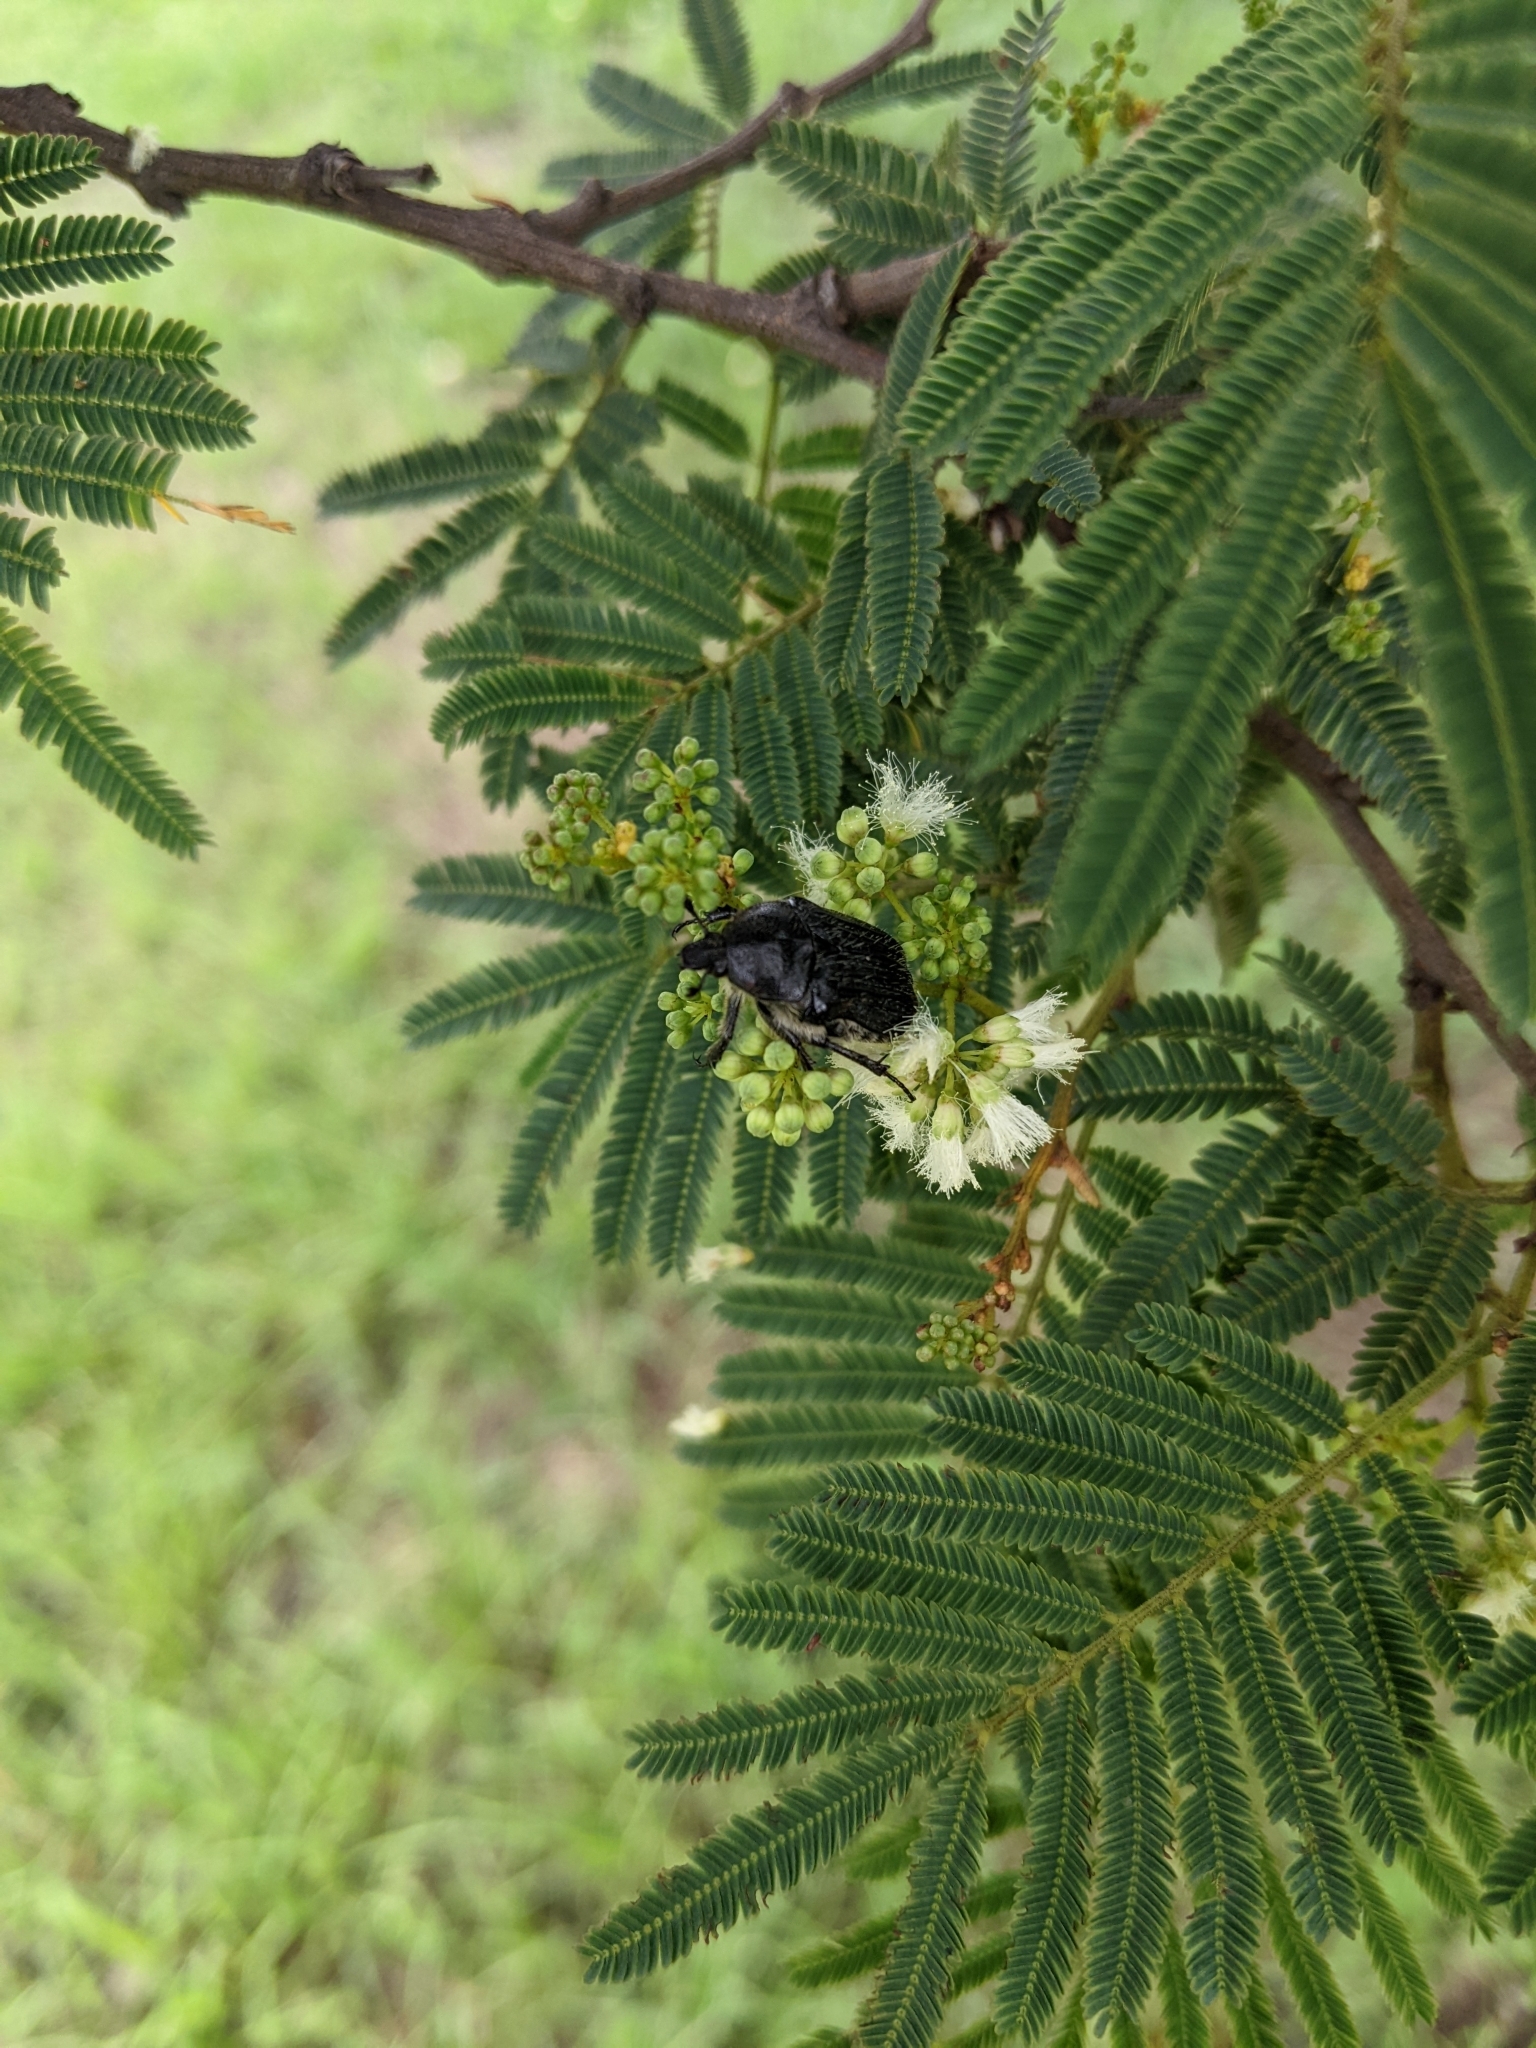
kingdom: Animalia
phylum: Arthropoda
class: Insecta
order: Coleoptera
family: Scarabaeidae
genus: Euphoria
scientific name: Euphoria humilis
